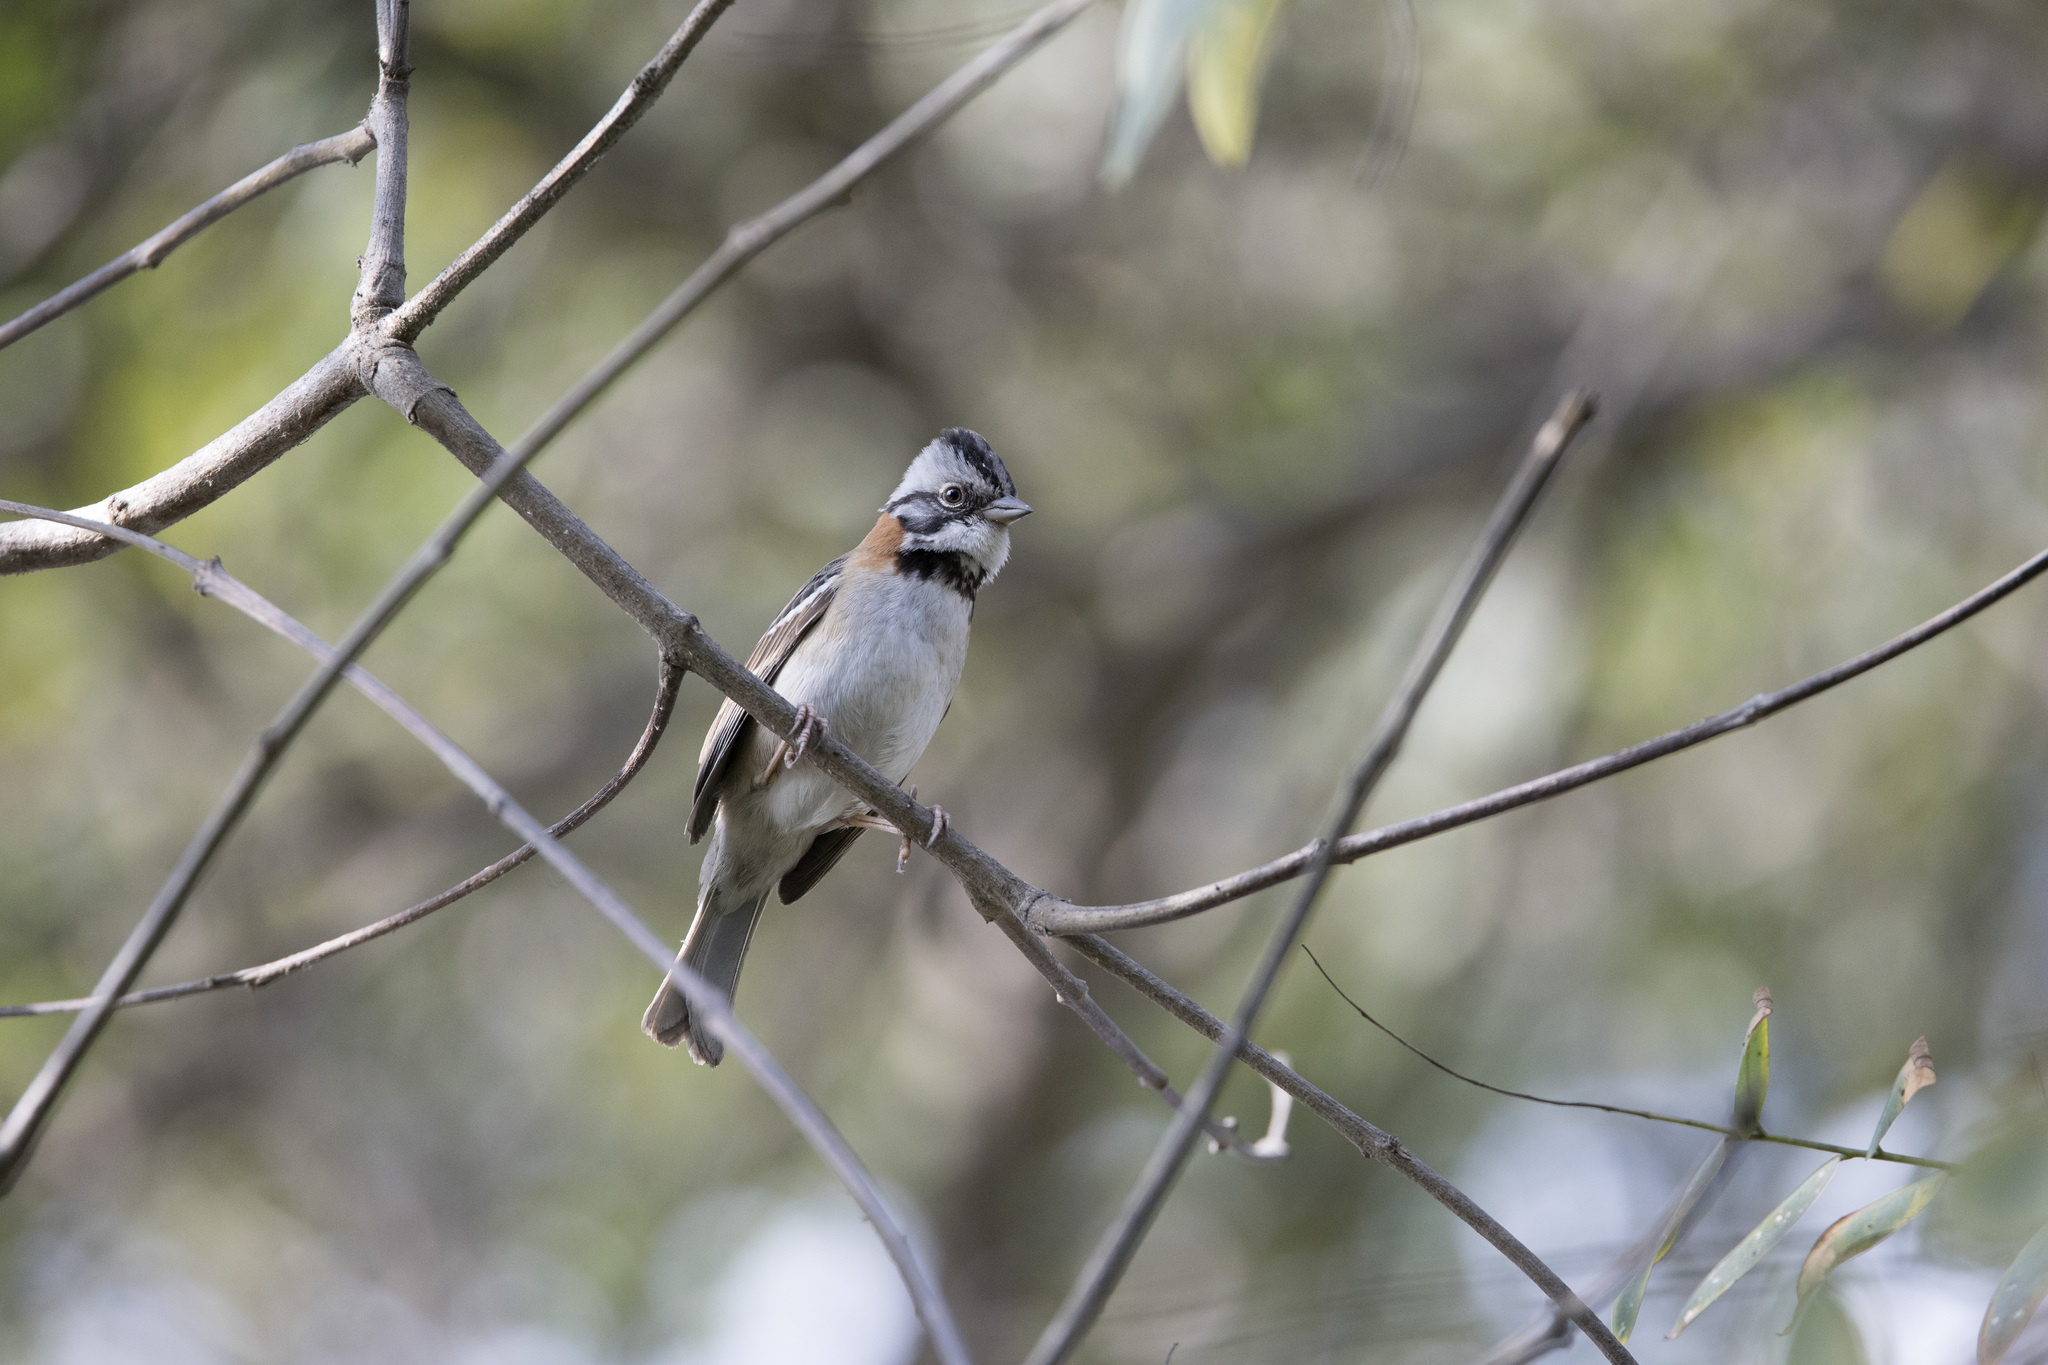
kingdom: Animalia
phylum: Chordata
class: Aves
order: Passeriformes
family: Passerellidae
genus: Zonotrichia
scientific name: Zonotrichia capensis
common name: Rufous-collared sparrow
